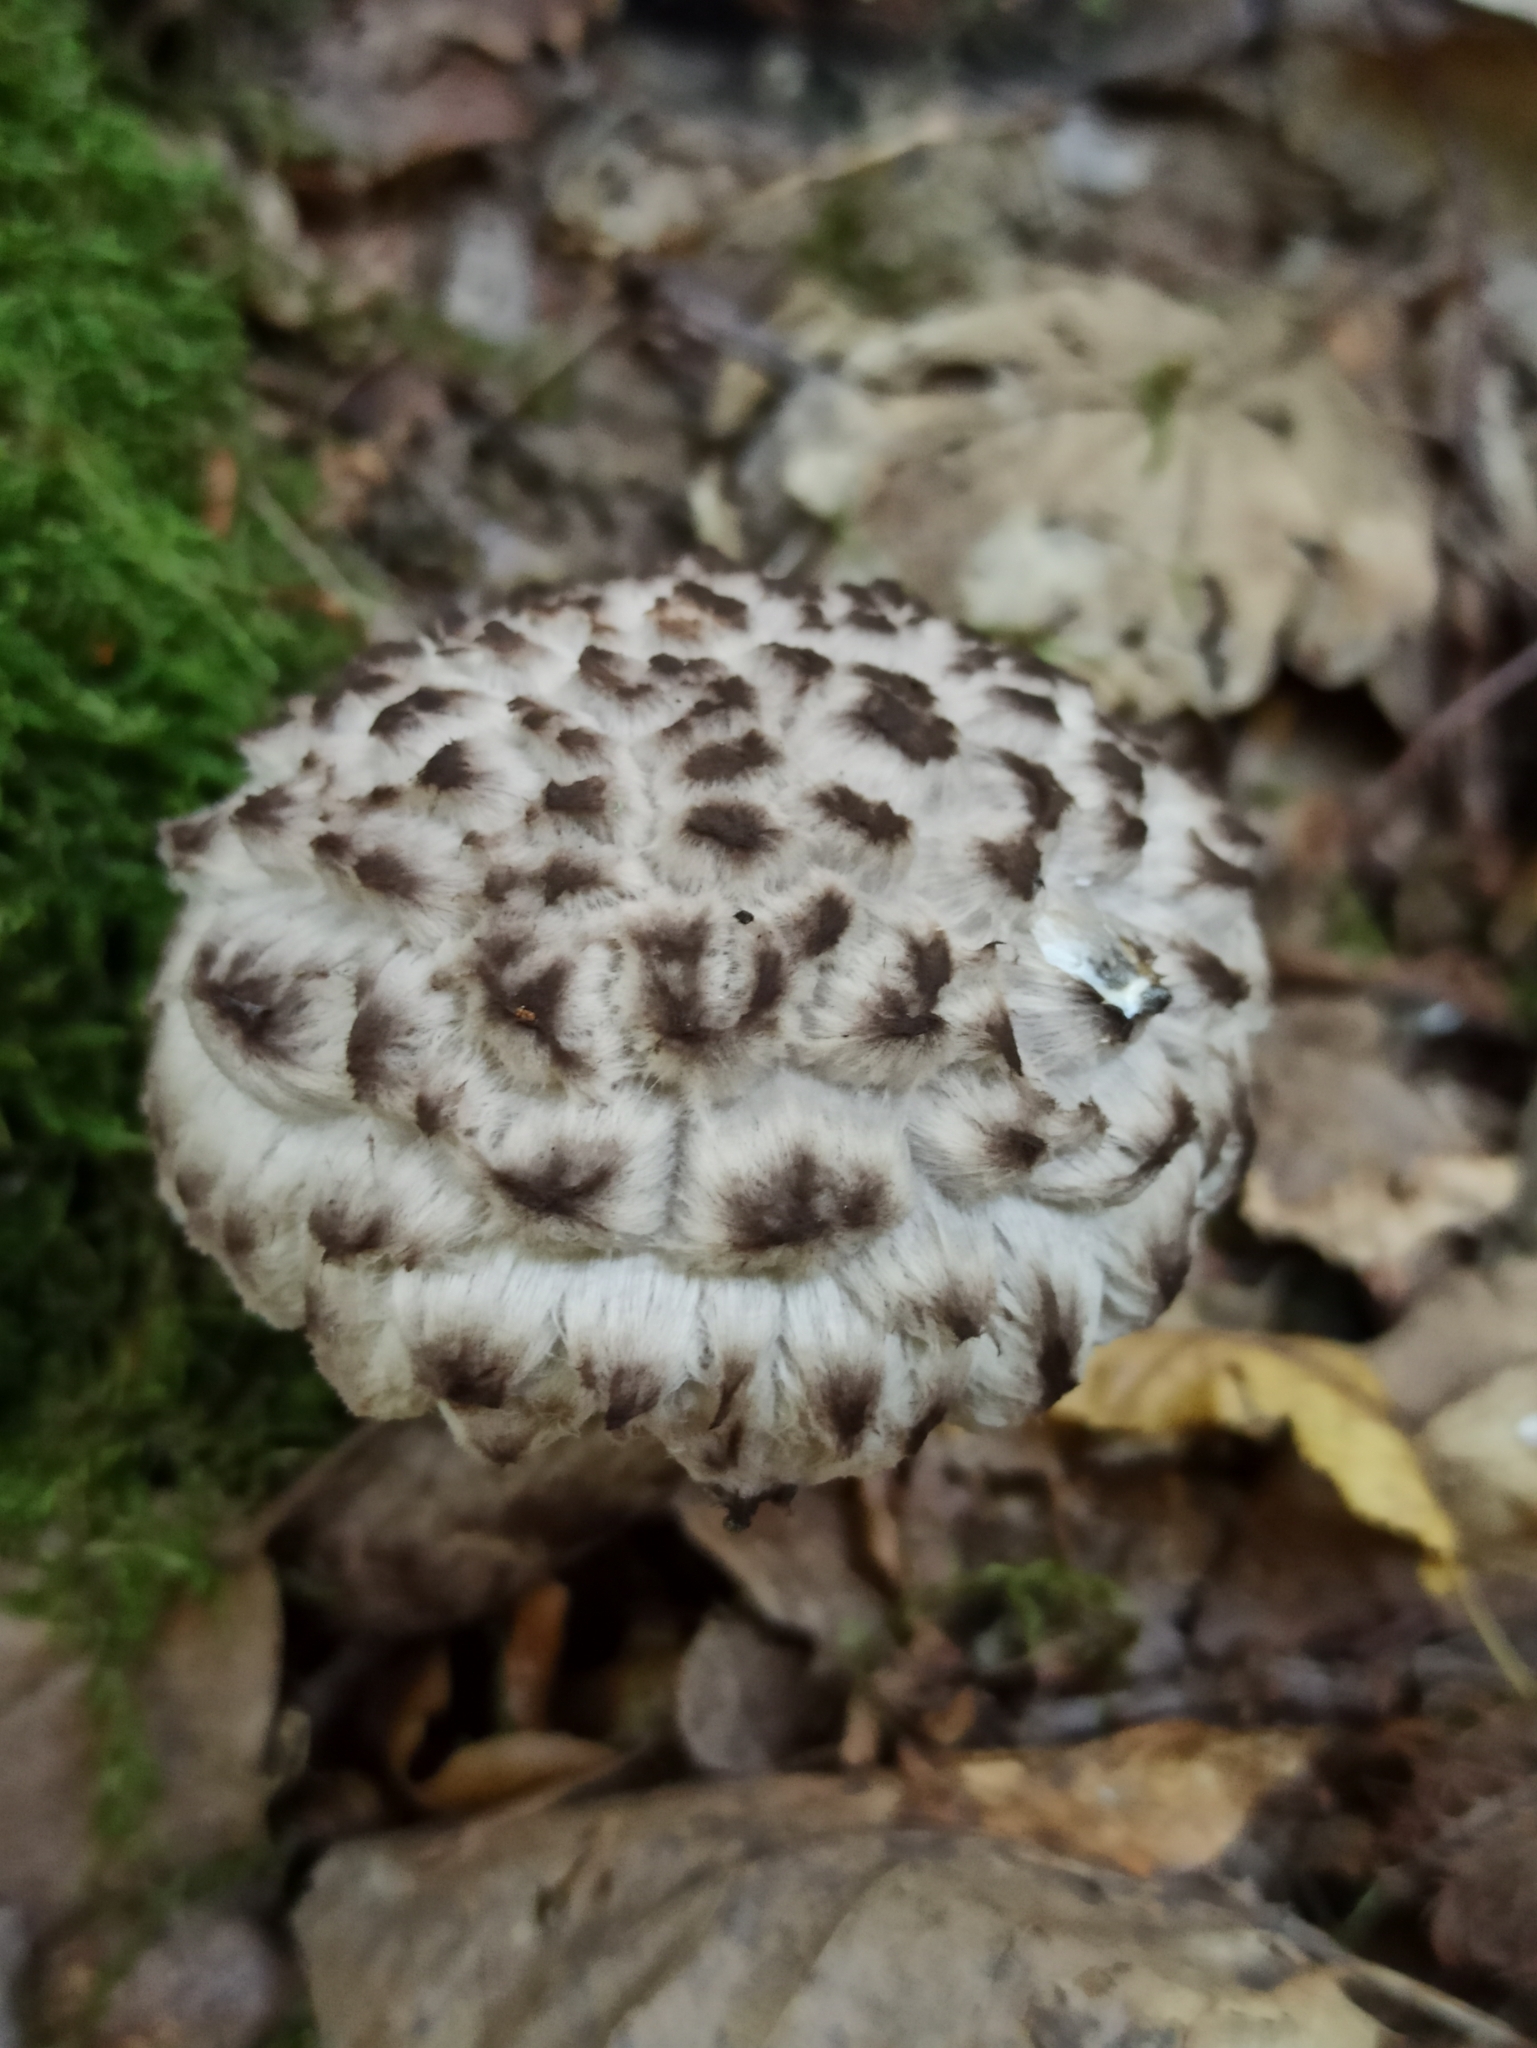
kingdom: Fungi
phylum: Basidiomycota
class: Agaricomycetes
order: Boletales
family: Boletaceae
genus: Strobilomyces
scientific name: Strobilomyces strobilaceus
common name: Old man of the woods
